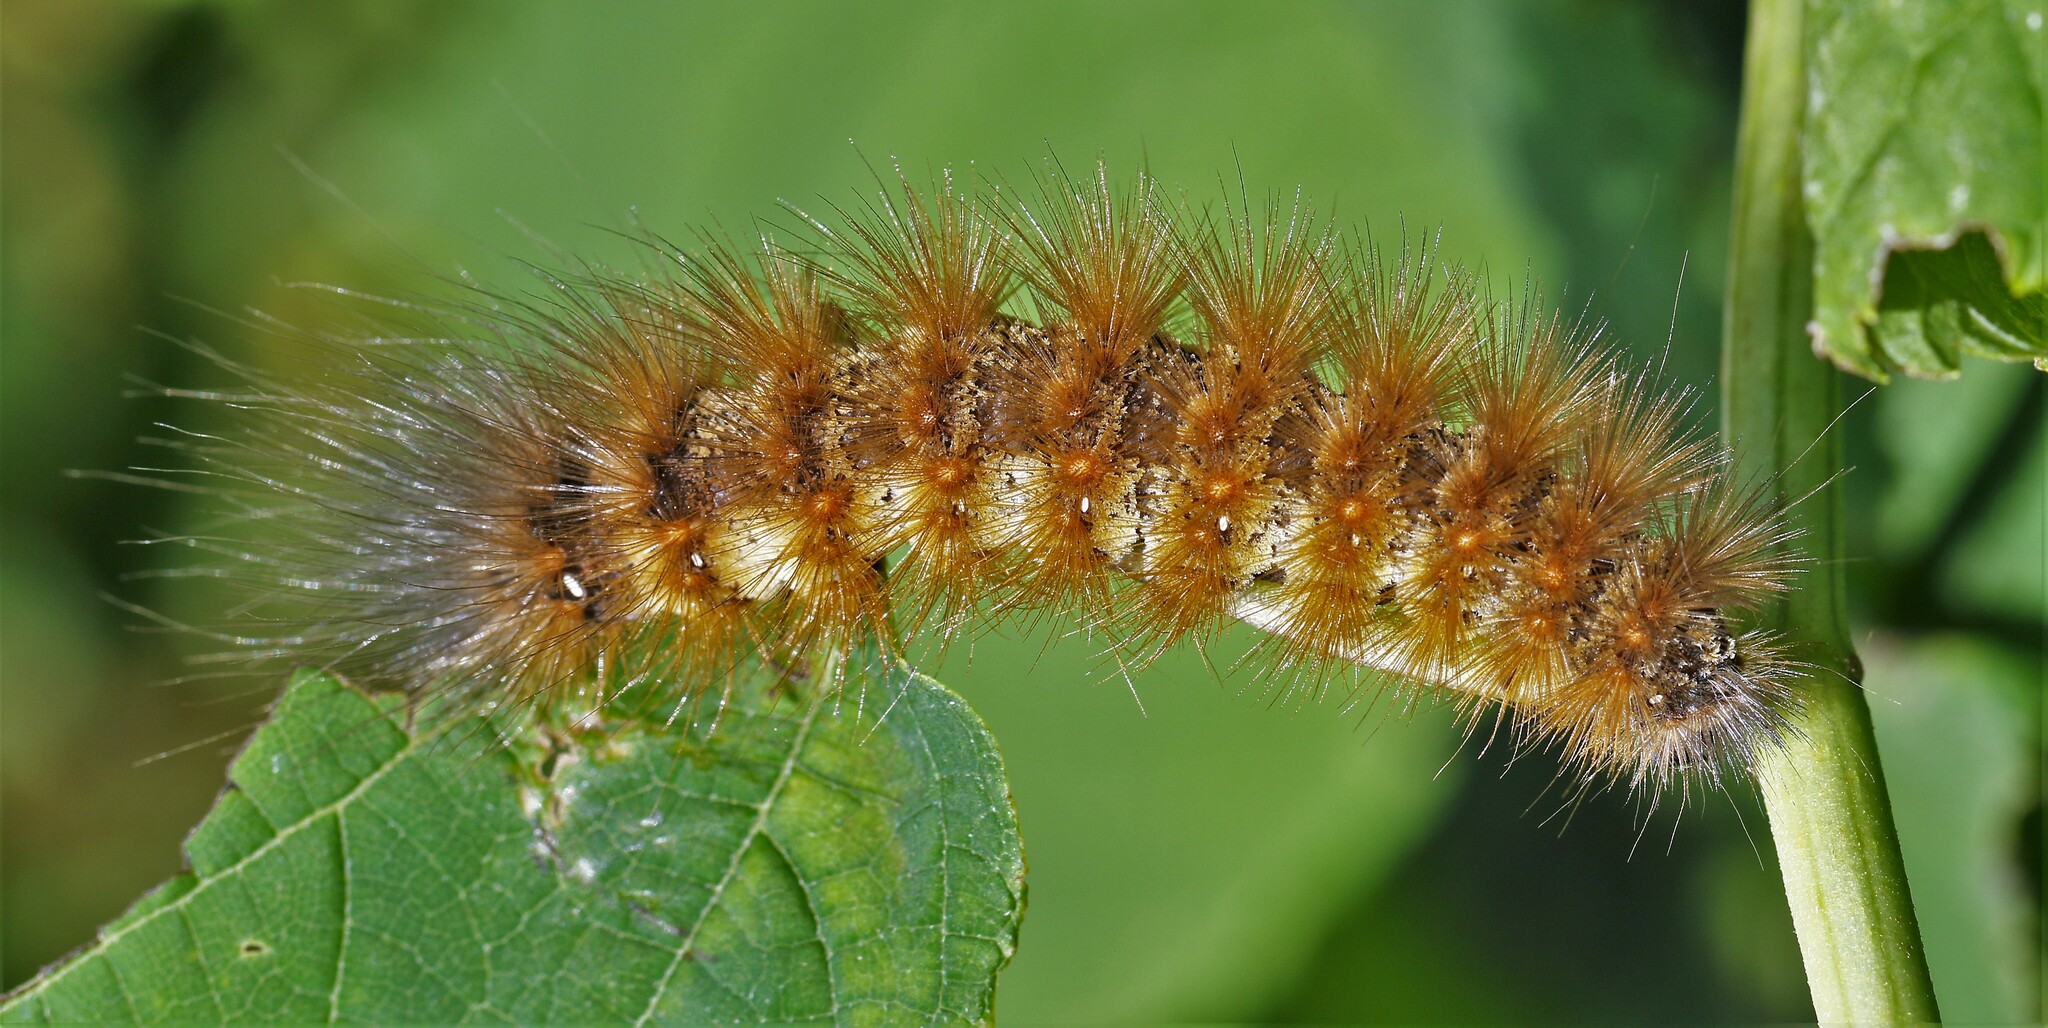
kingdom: Animalia
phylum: Arthropoda
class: Insecta
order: Lepidoptera
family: Erebidae
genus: Estigmene
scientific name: Estigmene acrea
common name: Salt marsh moth
